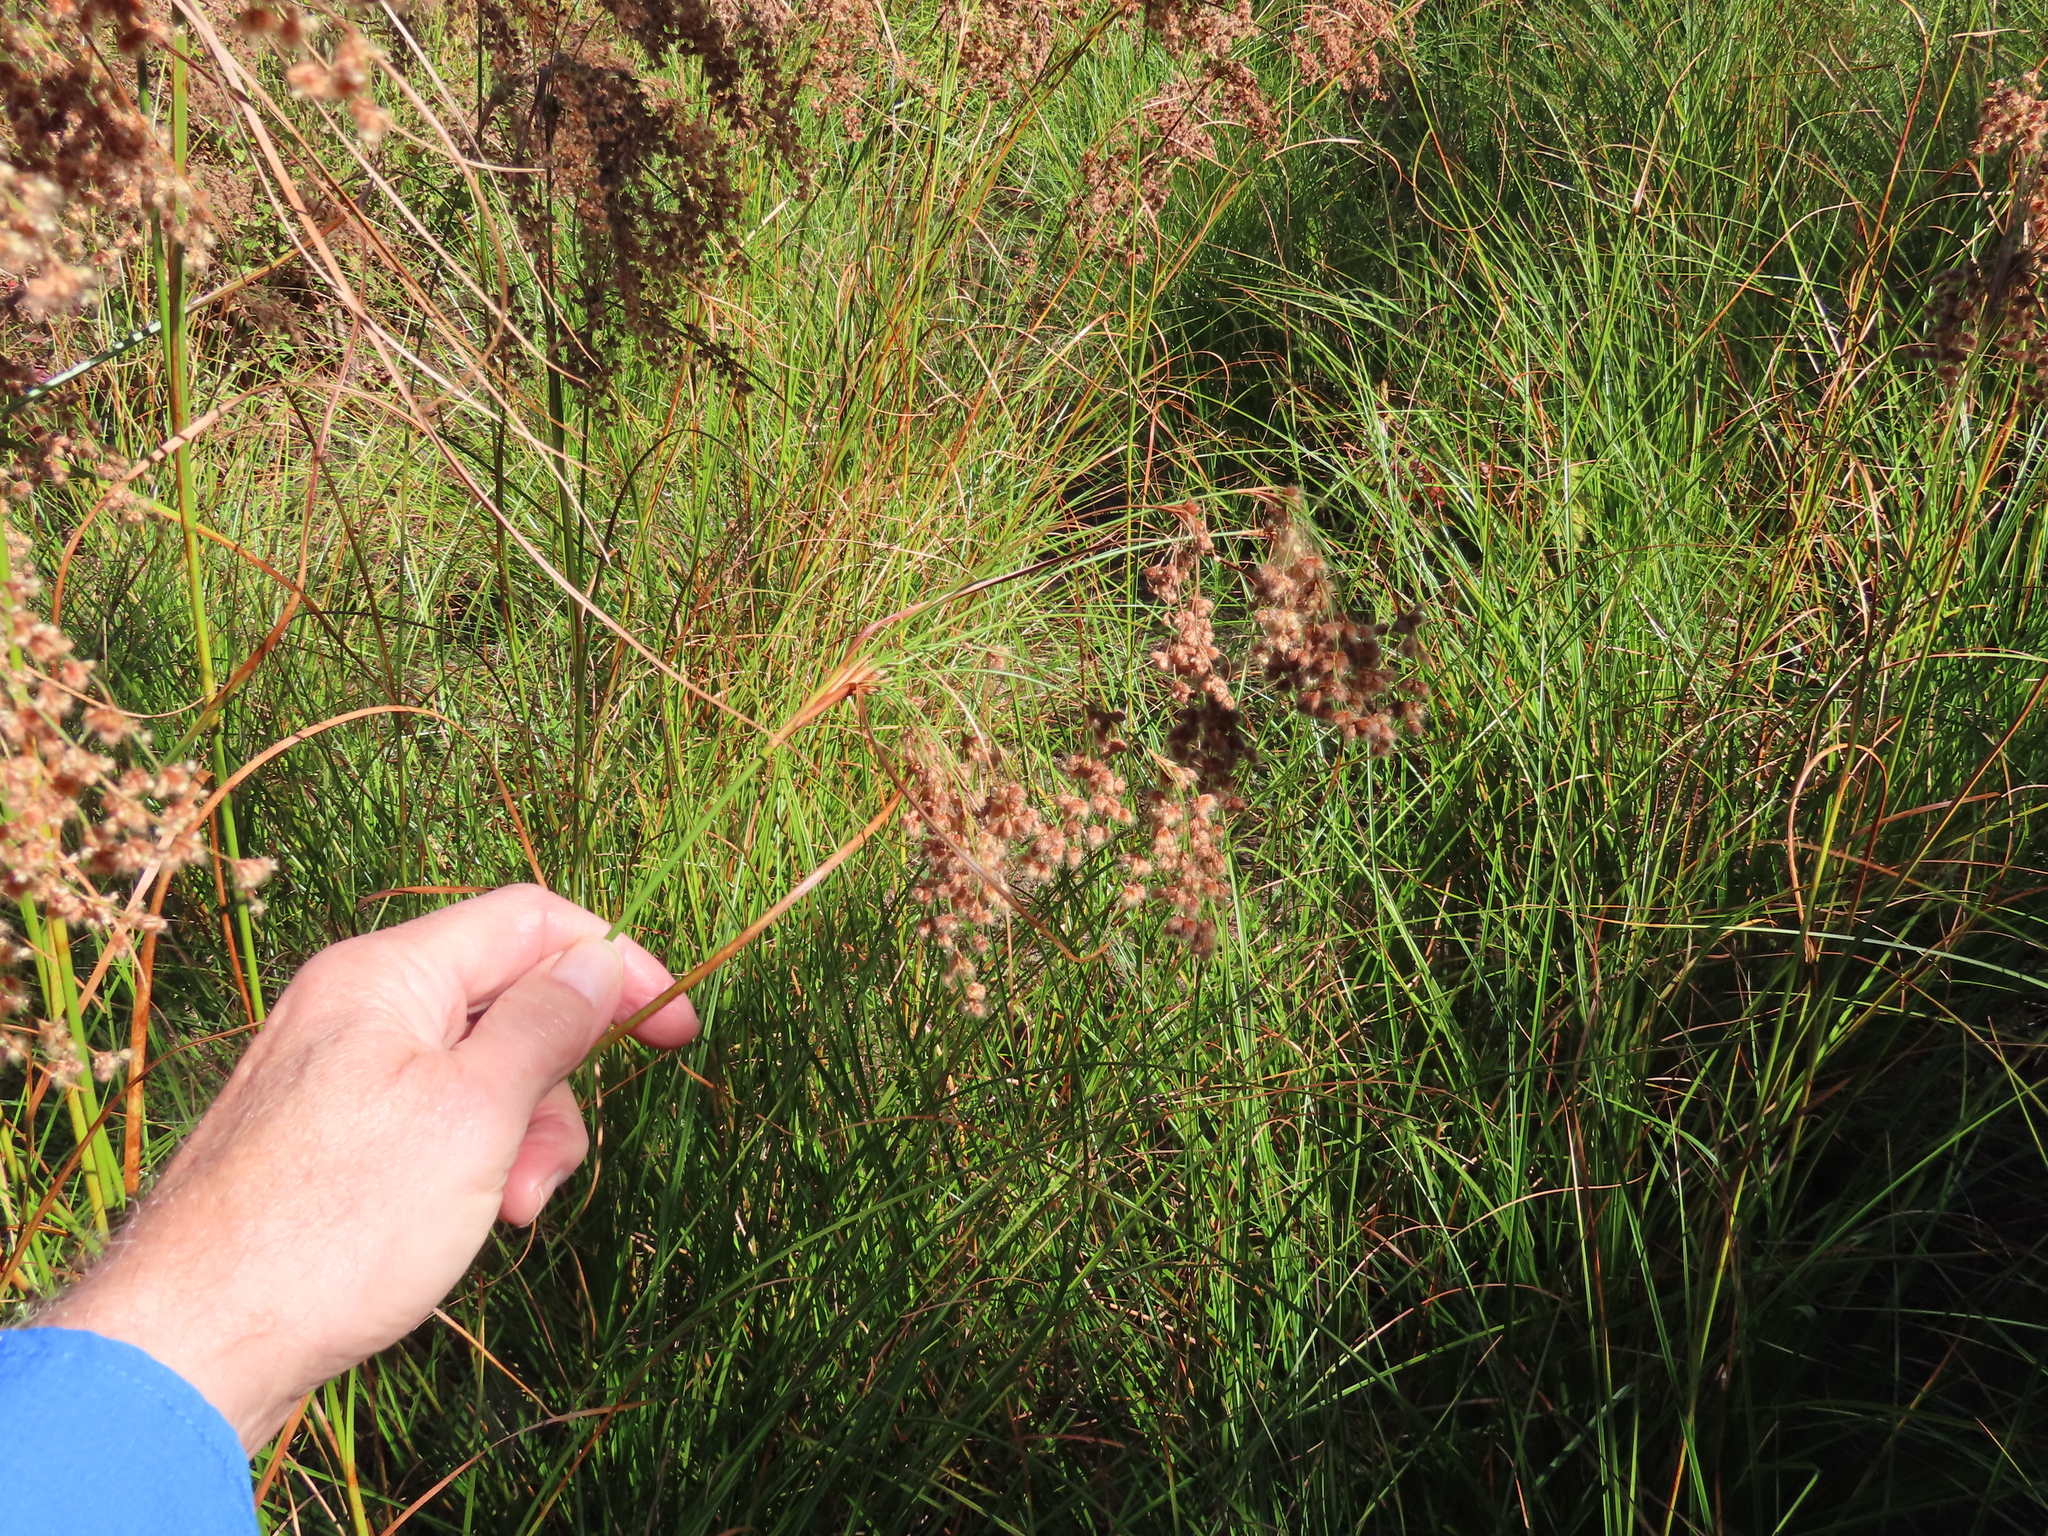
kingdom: Plantae
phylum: Tracheophyta
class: Liliopsida
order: Poales
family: Cyperaceae
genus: Scirpus
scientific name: Scirpus cyperinus
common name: Black-sheathed bulrush
